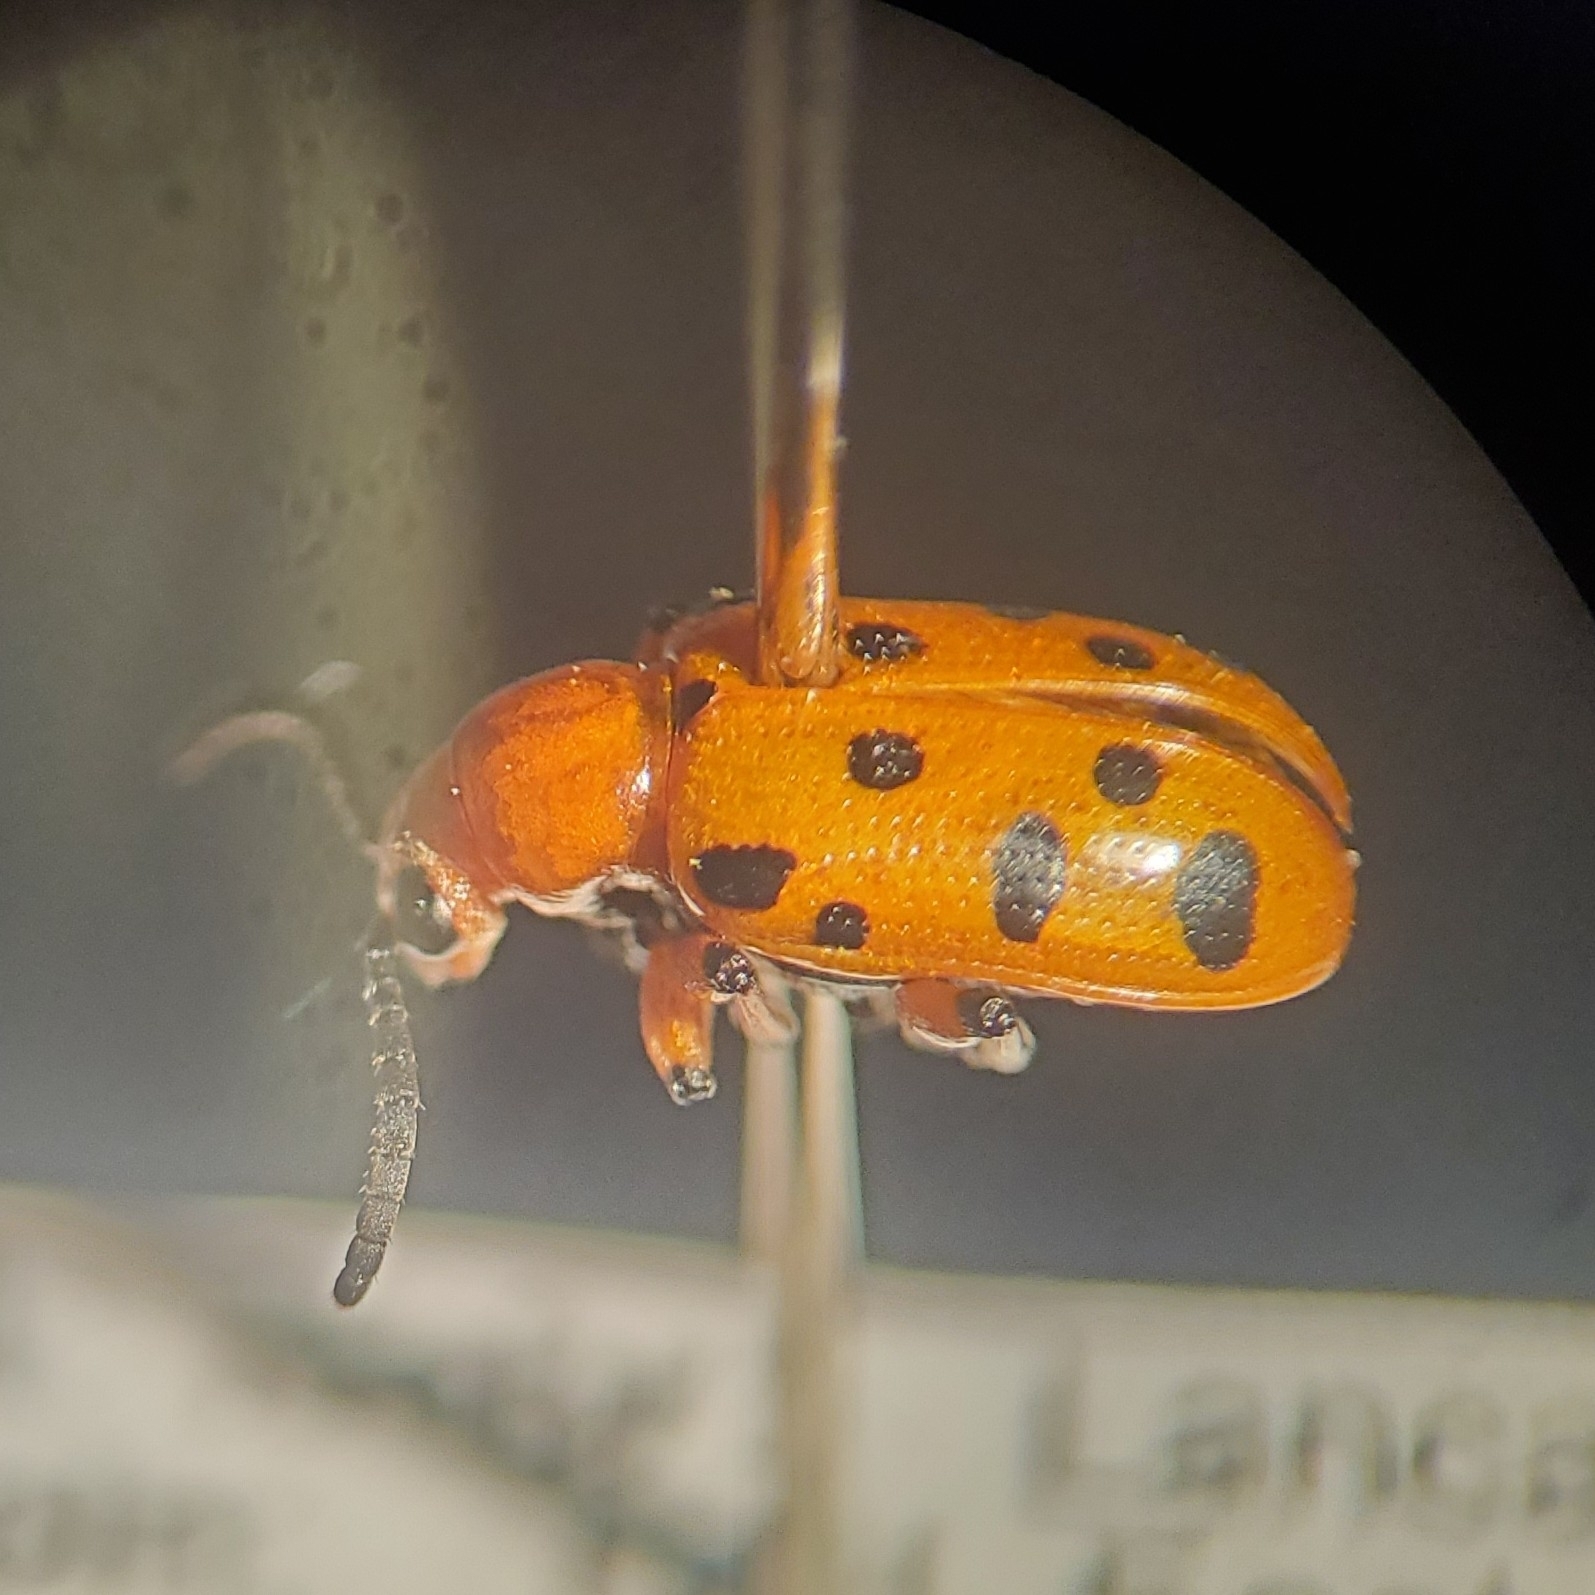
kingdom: Animalia
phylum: Arthropoda
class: Insecta
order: Coleoptera
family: Chrysomelidae
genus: Crioceris
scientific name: Crioceris duodecimpunctata
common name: Twelve-spotted asparagus beetle
